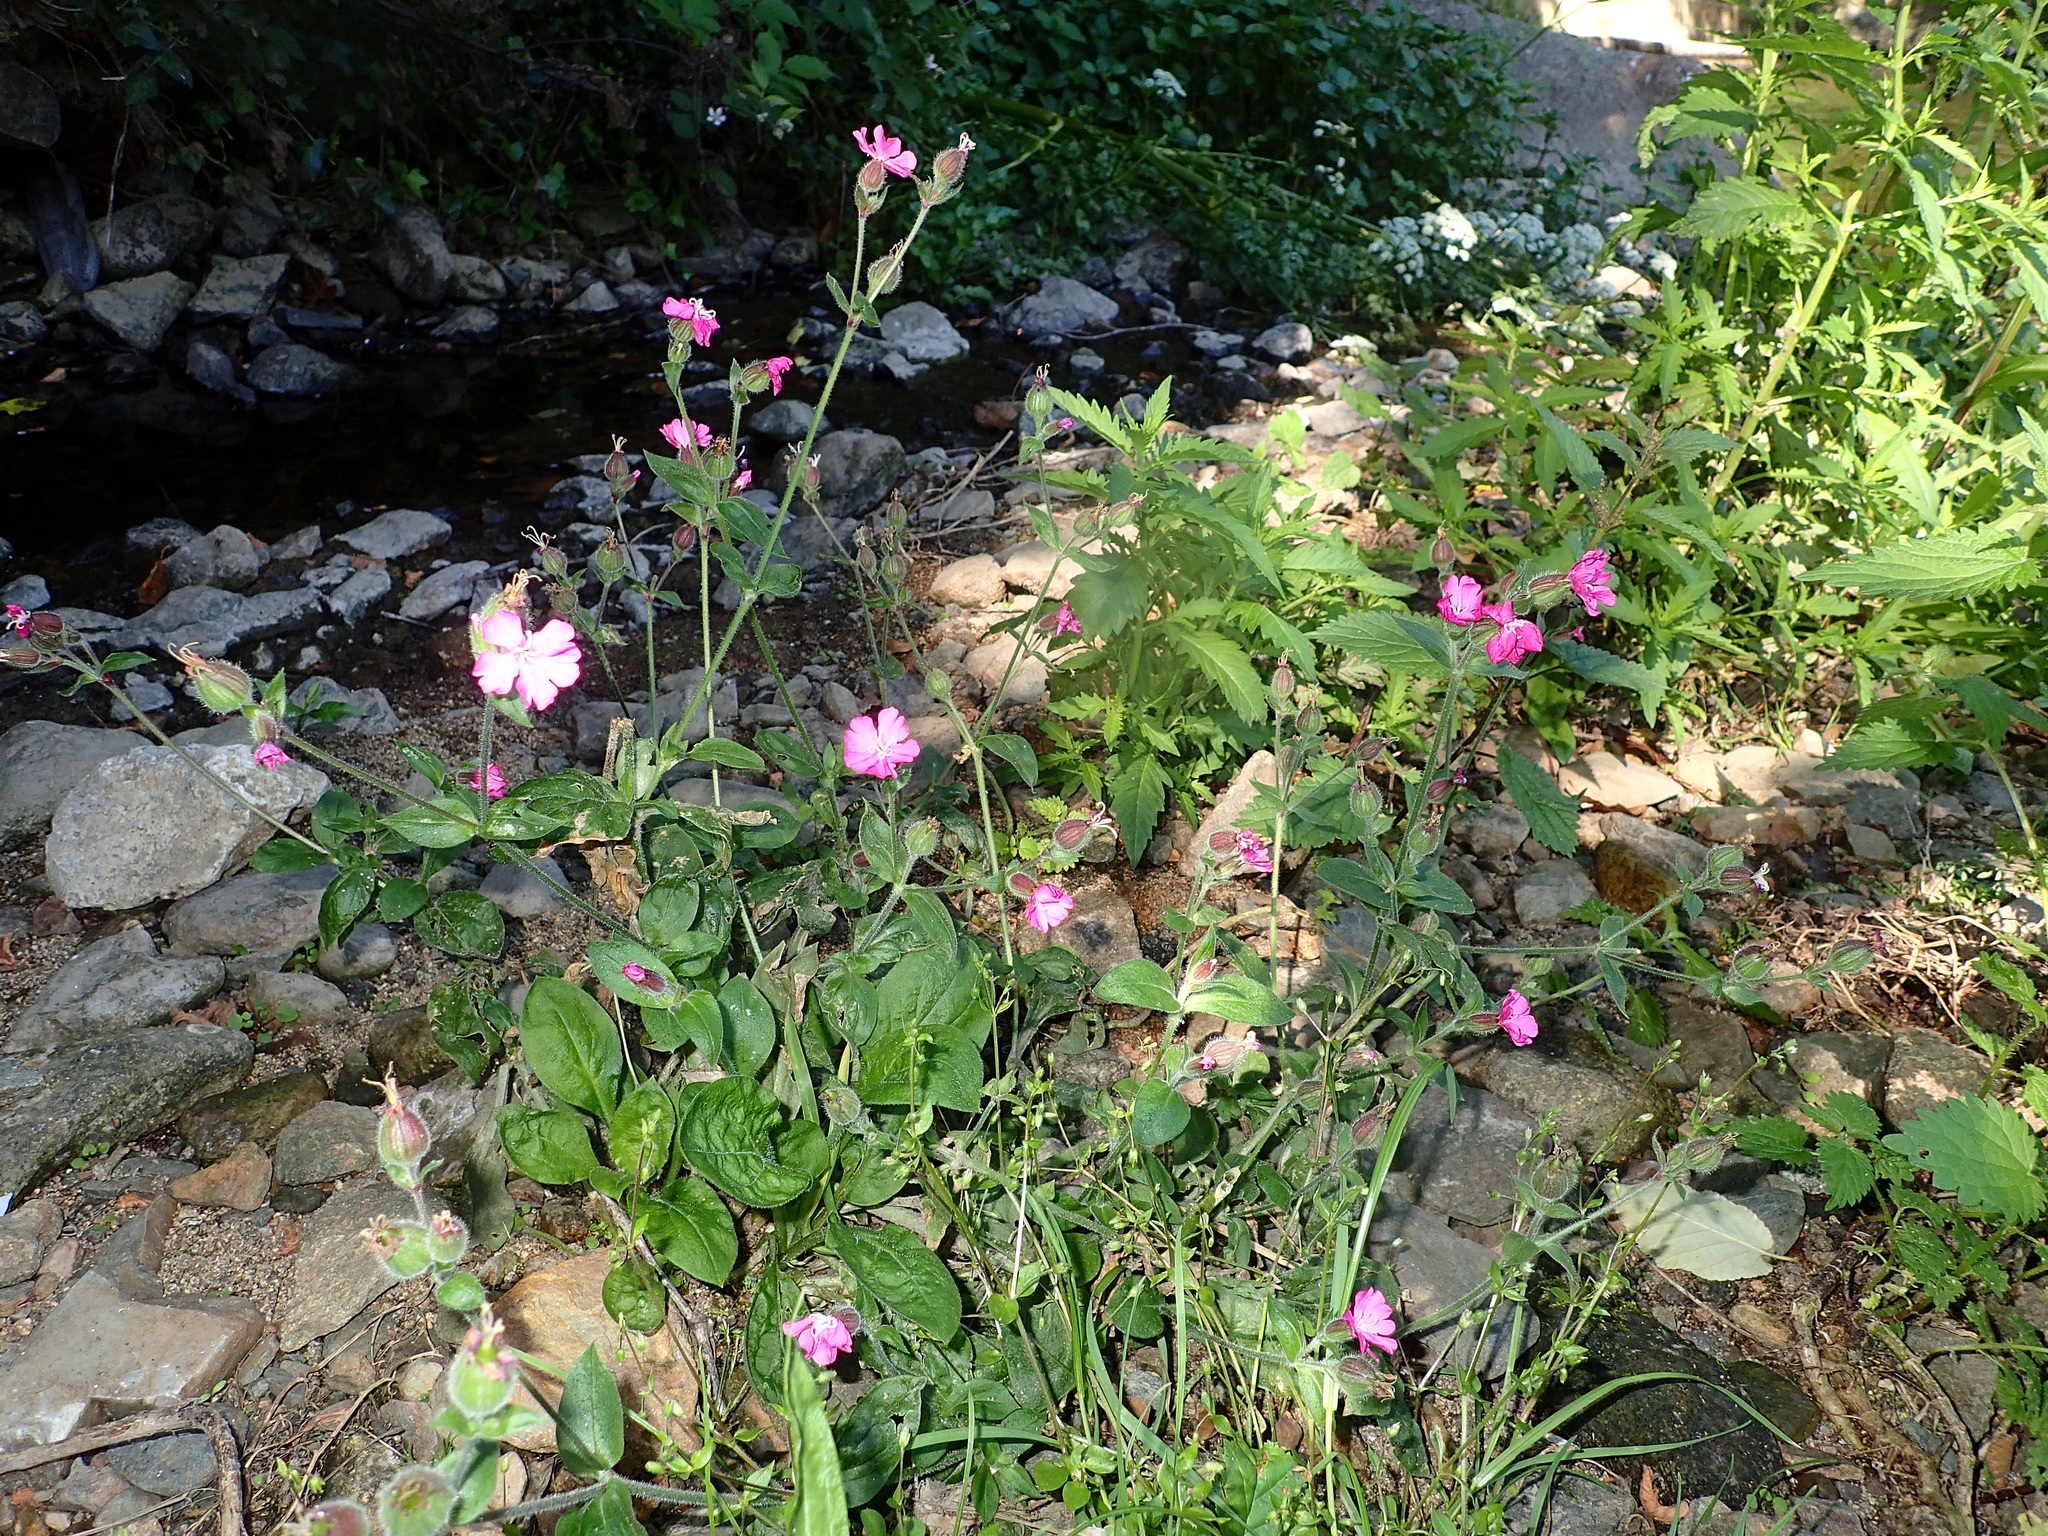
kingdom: Plantae
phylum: Tracheophyta
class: Magnoliopsida
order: Caryophyllales
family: Caryophyllaceae
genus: Silene
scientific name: Silene dioica
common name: Red campion
